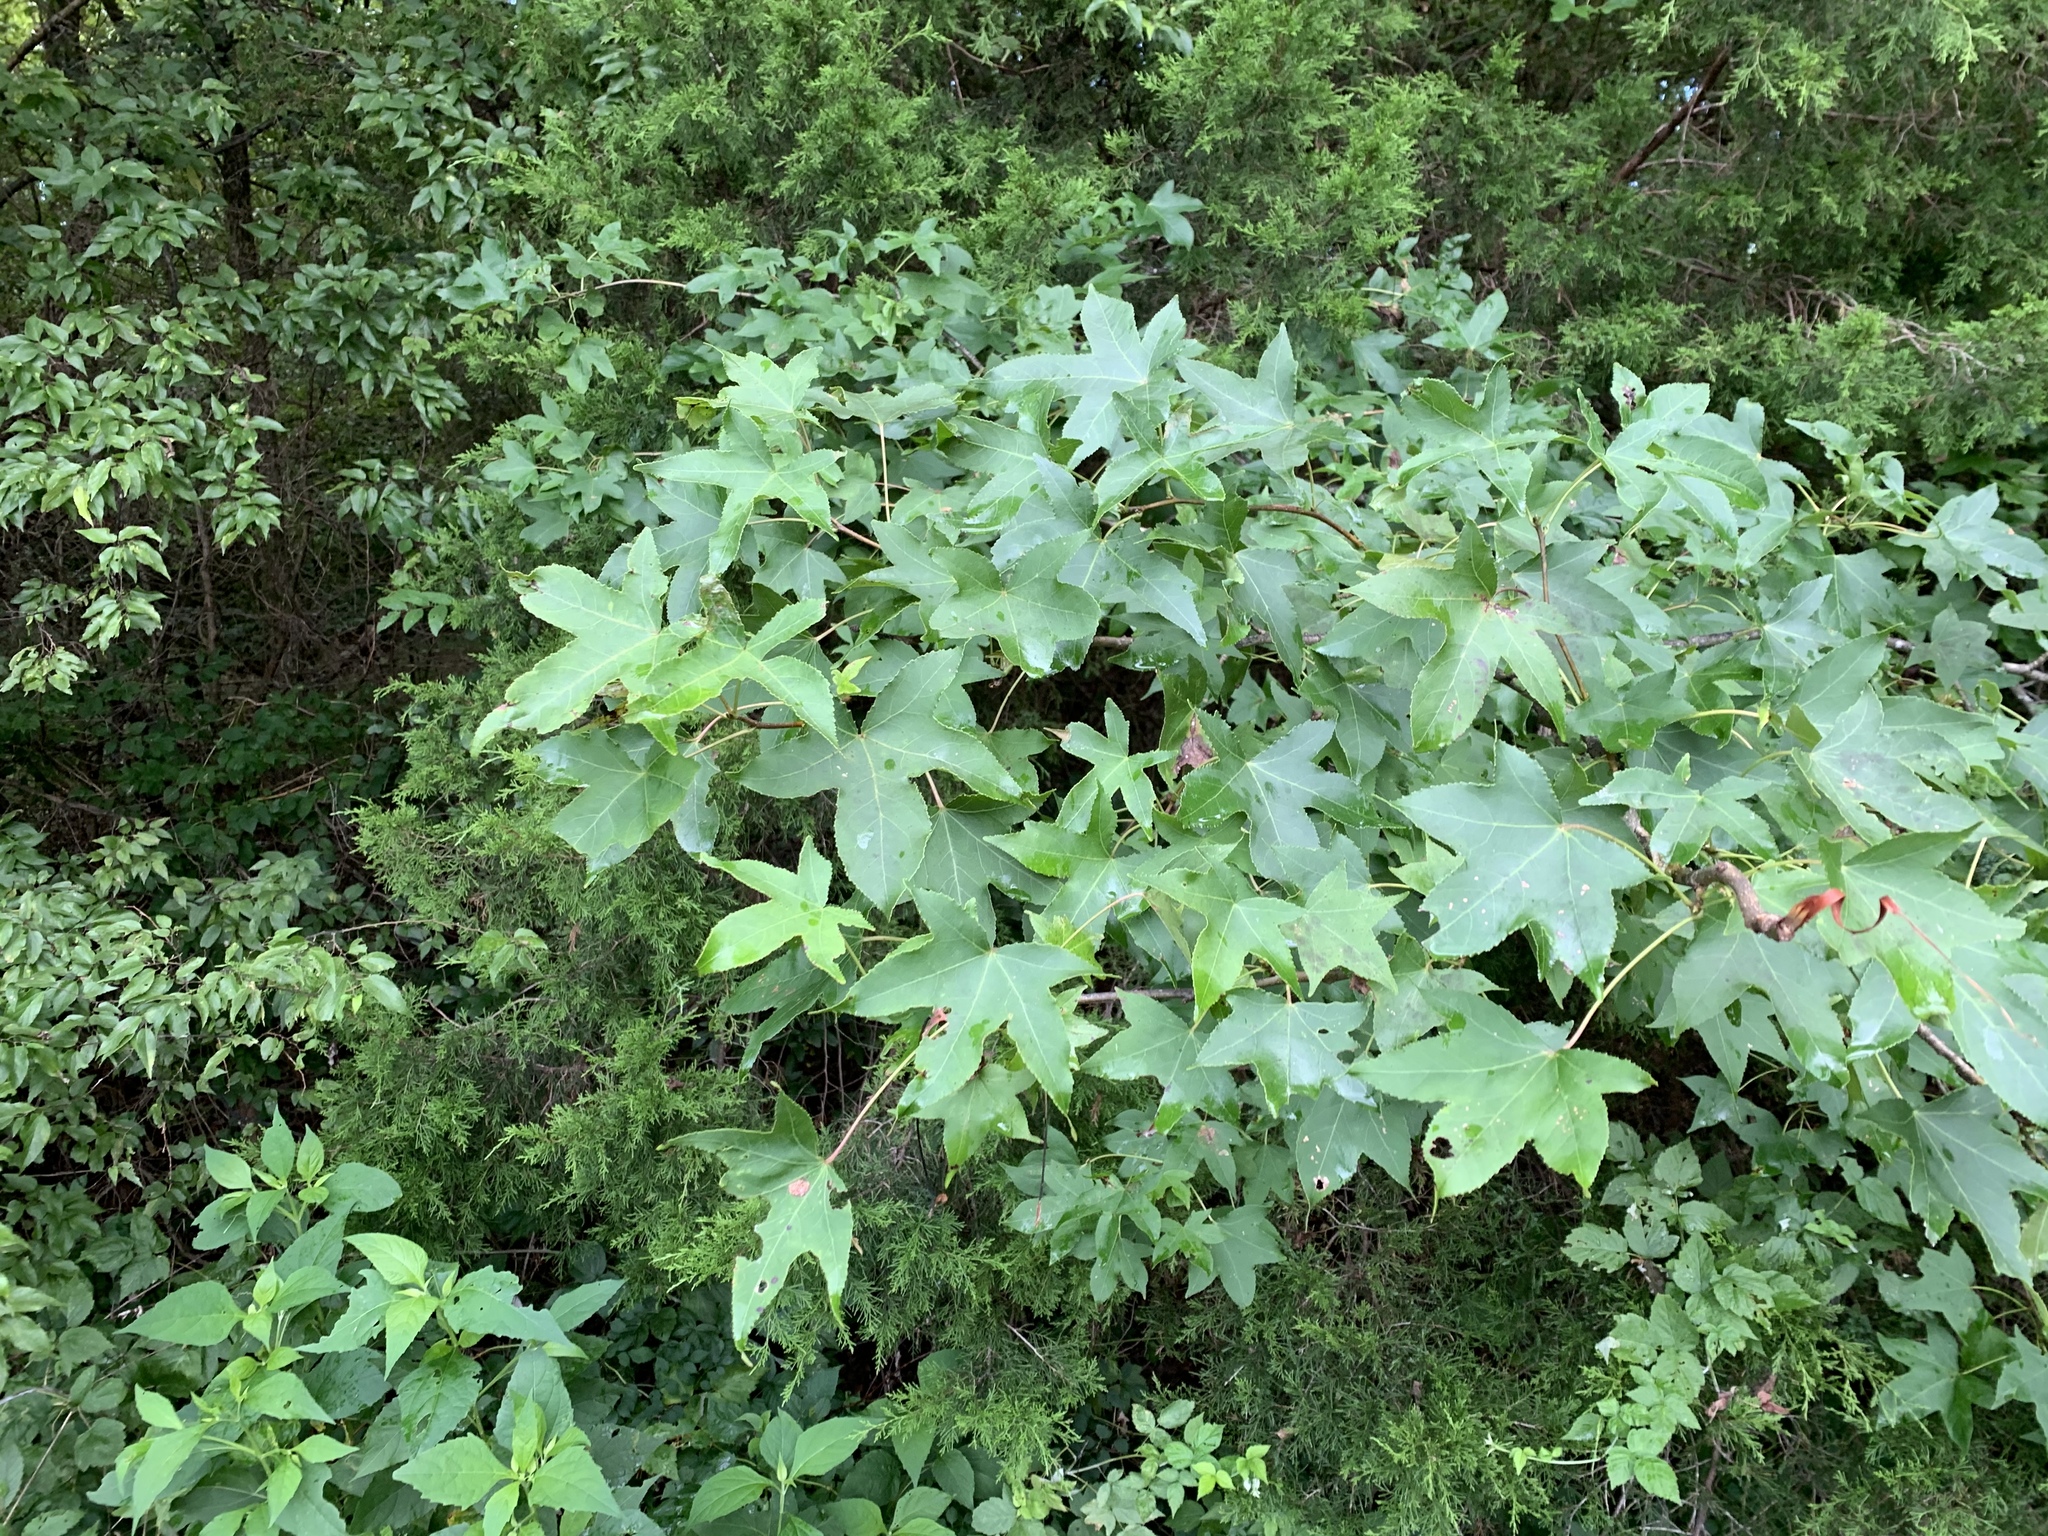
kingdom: Plantae
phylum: Tracheophyta
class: Magnoliopsida
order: Saxifragales
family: Altingiaceae
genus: Liquidambar
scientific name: Liquidambar styraciflua
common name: Sweet gum
